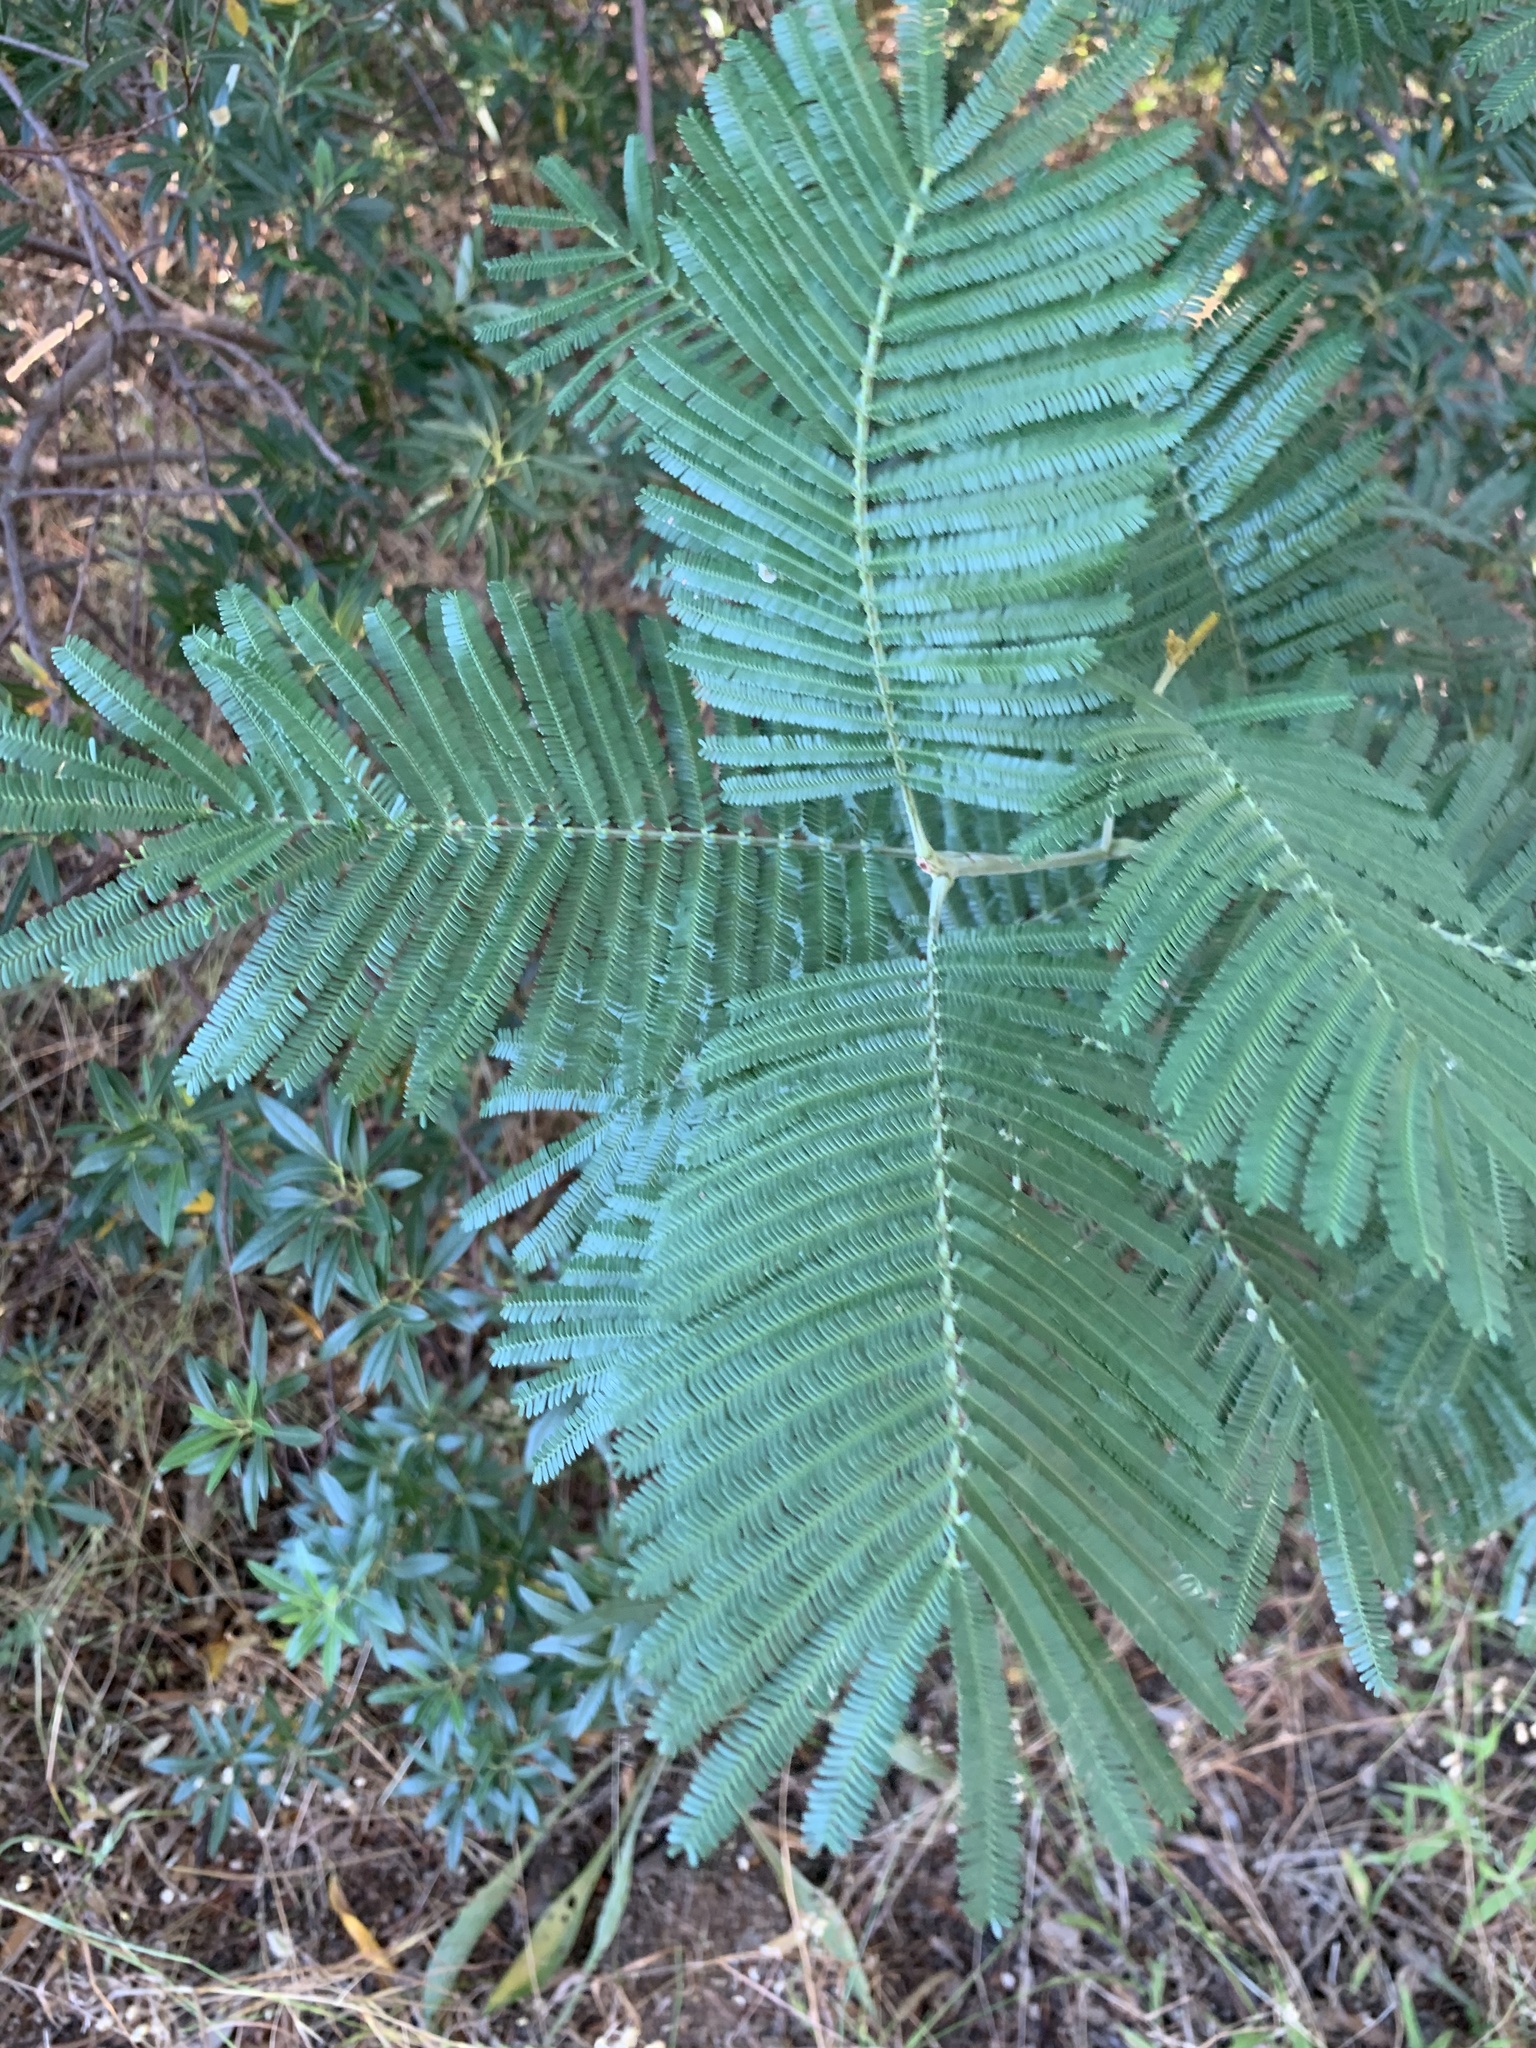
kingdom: Plantae
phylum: Tracheophyta
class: Magnoliopsida
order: Fabales
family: Fabaceae
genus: Acacia
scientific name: Acacia mearnsii
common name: Black wattle
